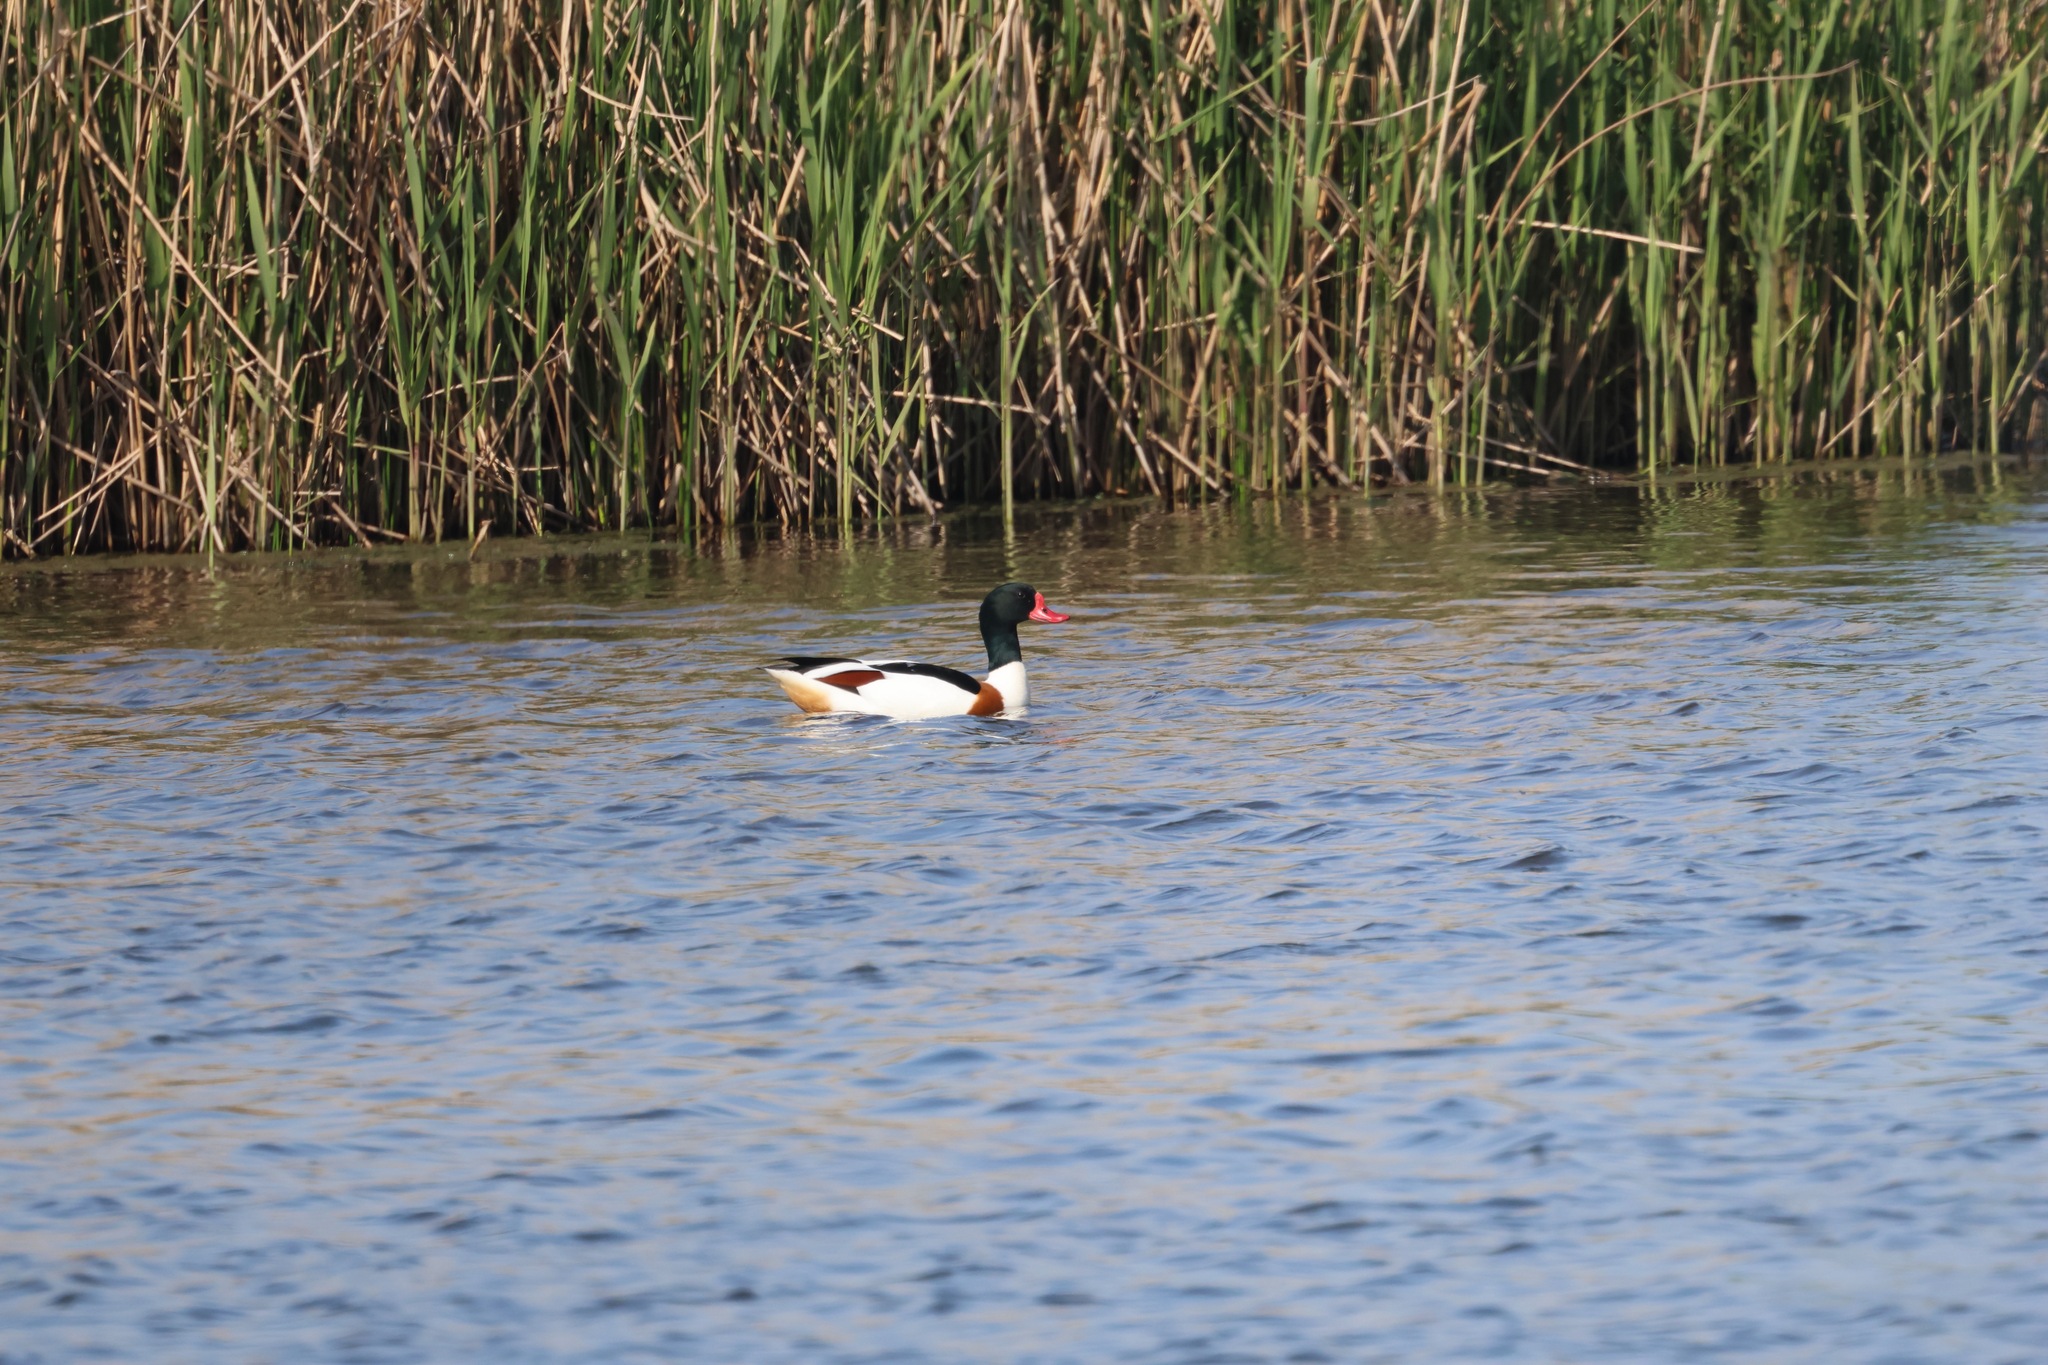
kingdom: Animalia
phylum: Chordata
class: Aves
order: Anseriformes
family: Anatidae
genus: Tadorna
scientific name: Tadorna tadorna
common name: Common shelduck
